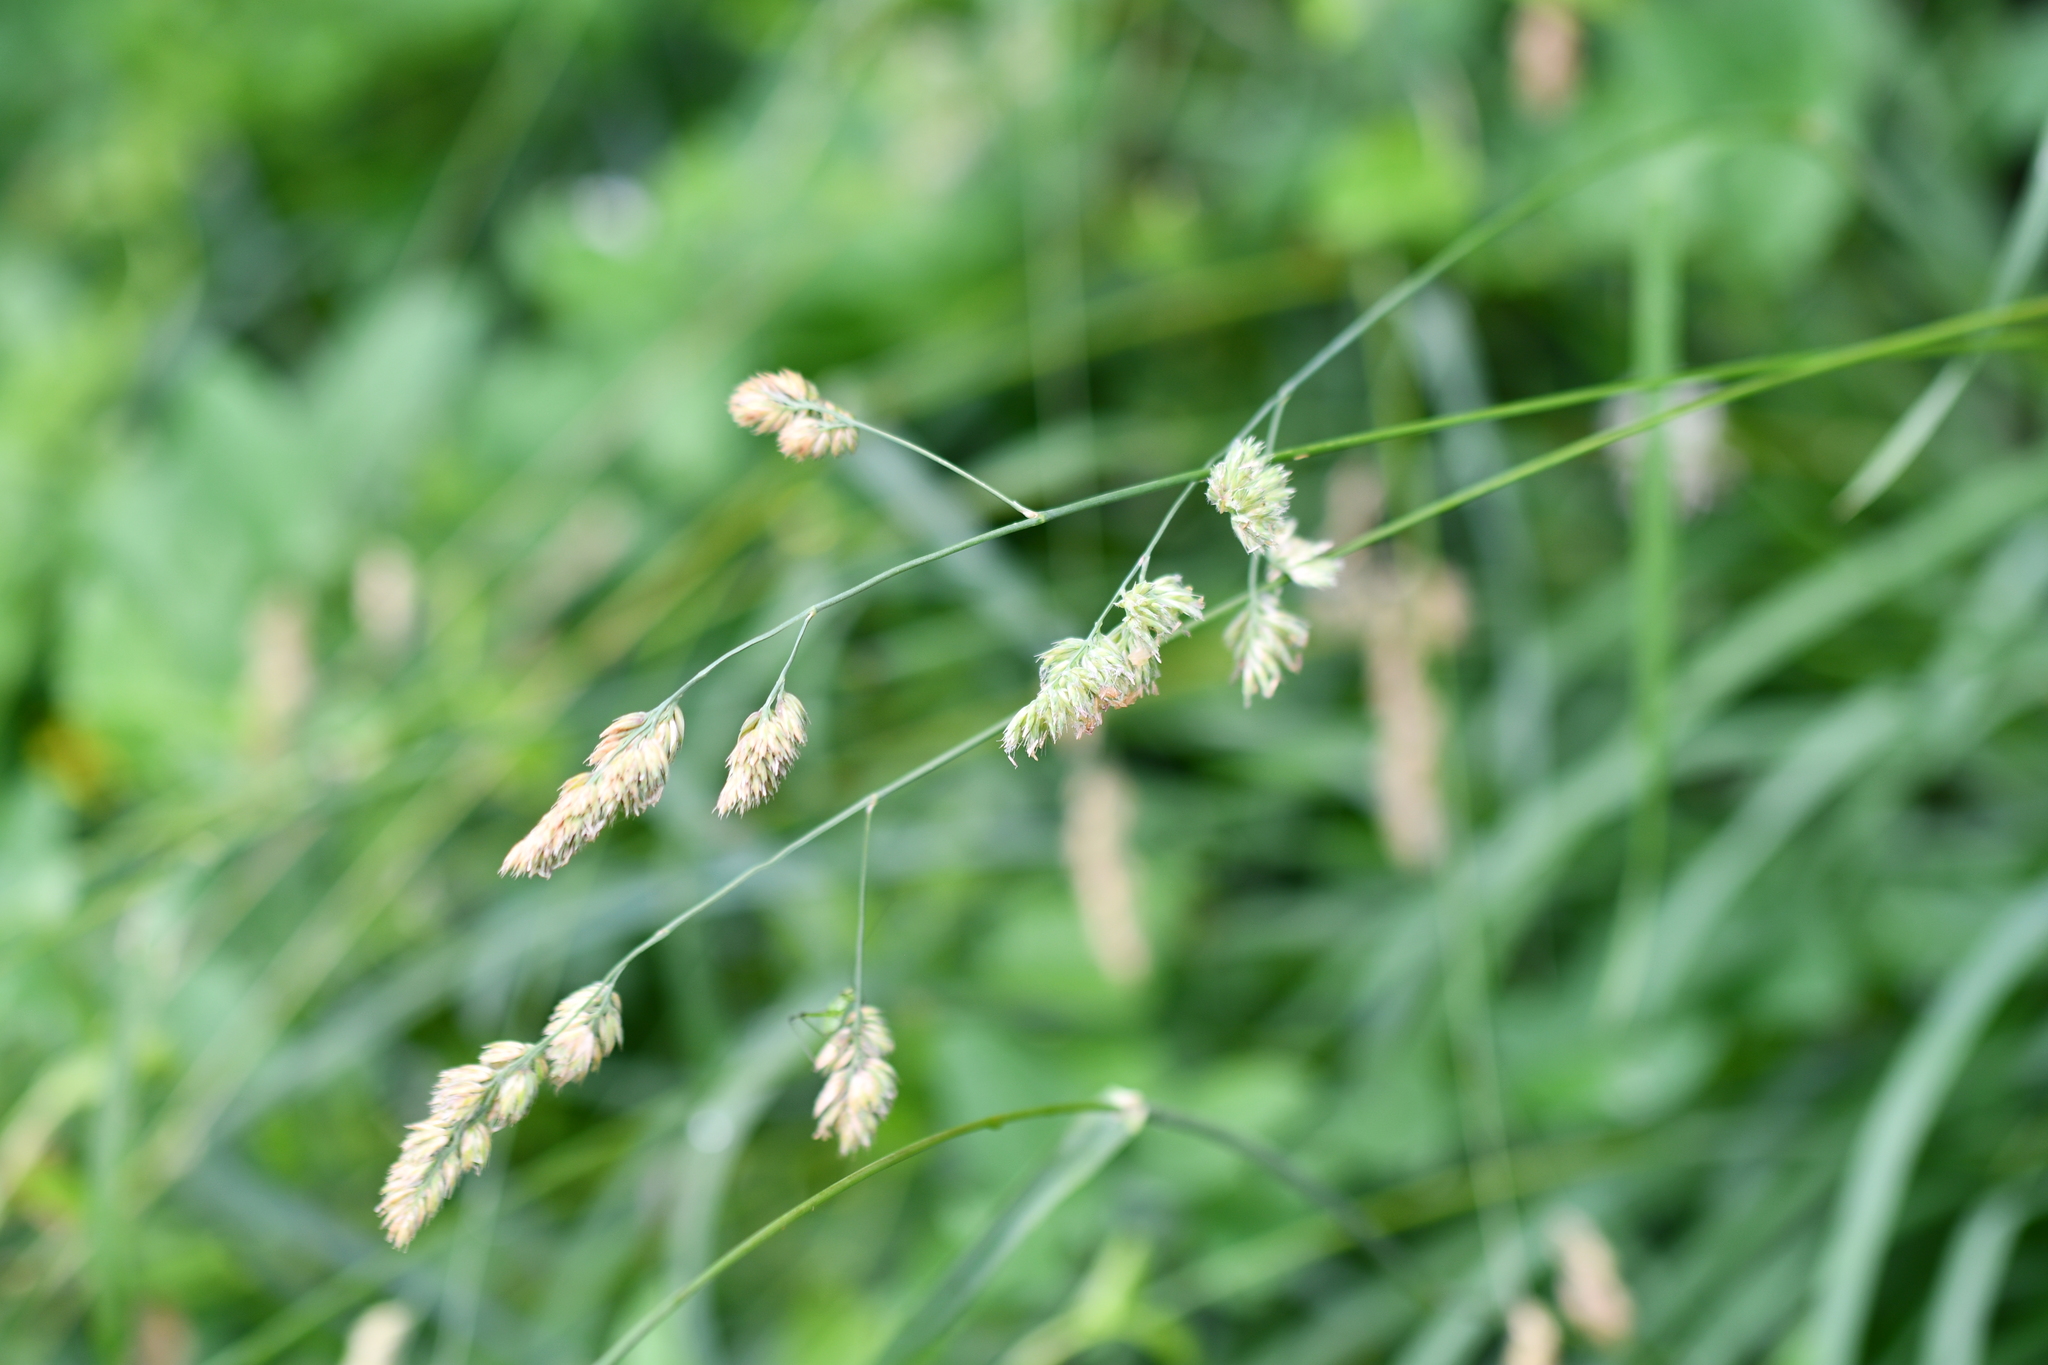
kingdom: Plantae
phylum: Tracheophyta
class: Liliopsida
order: Poales
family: Poaceae
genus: Dactylis
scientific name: Dactylis glomerata
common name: Orchardgrass
